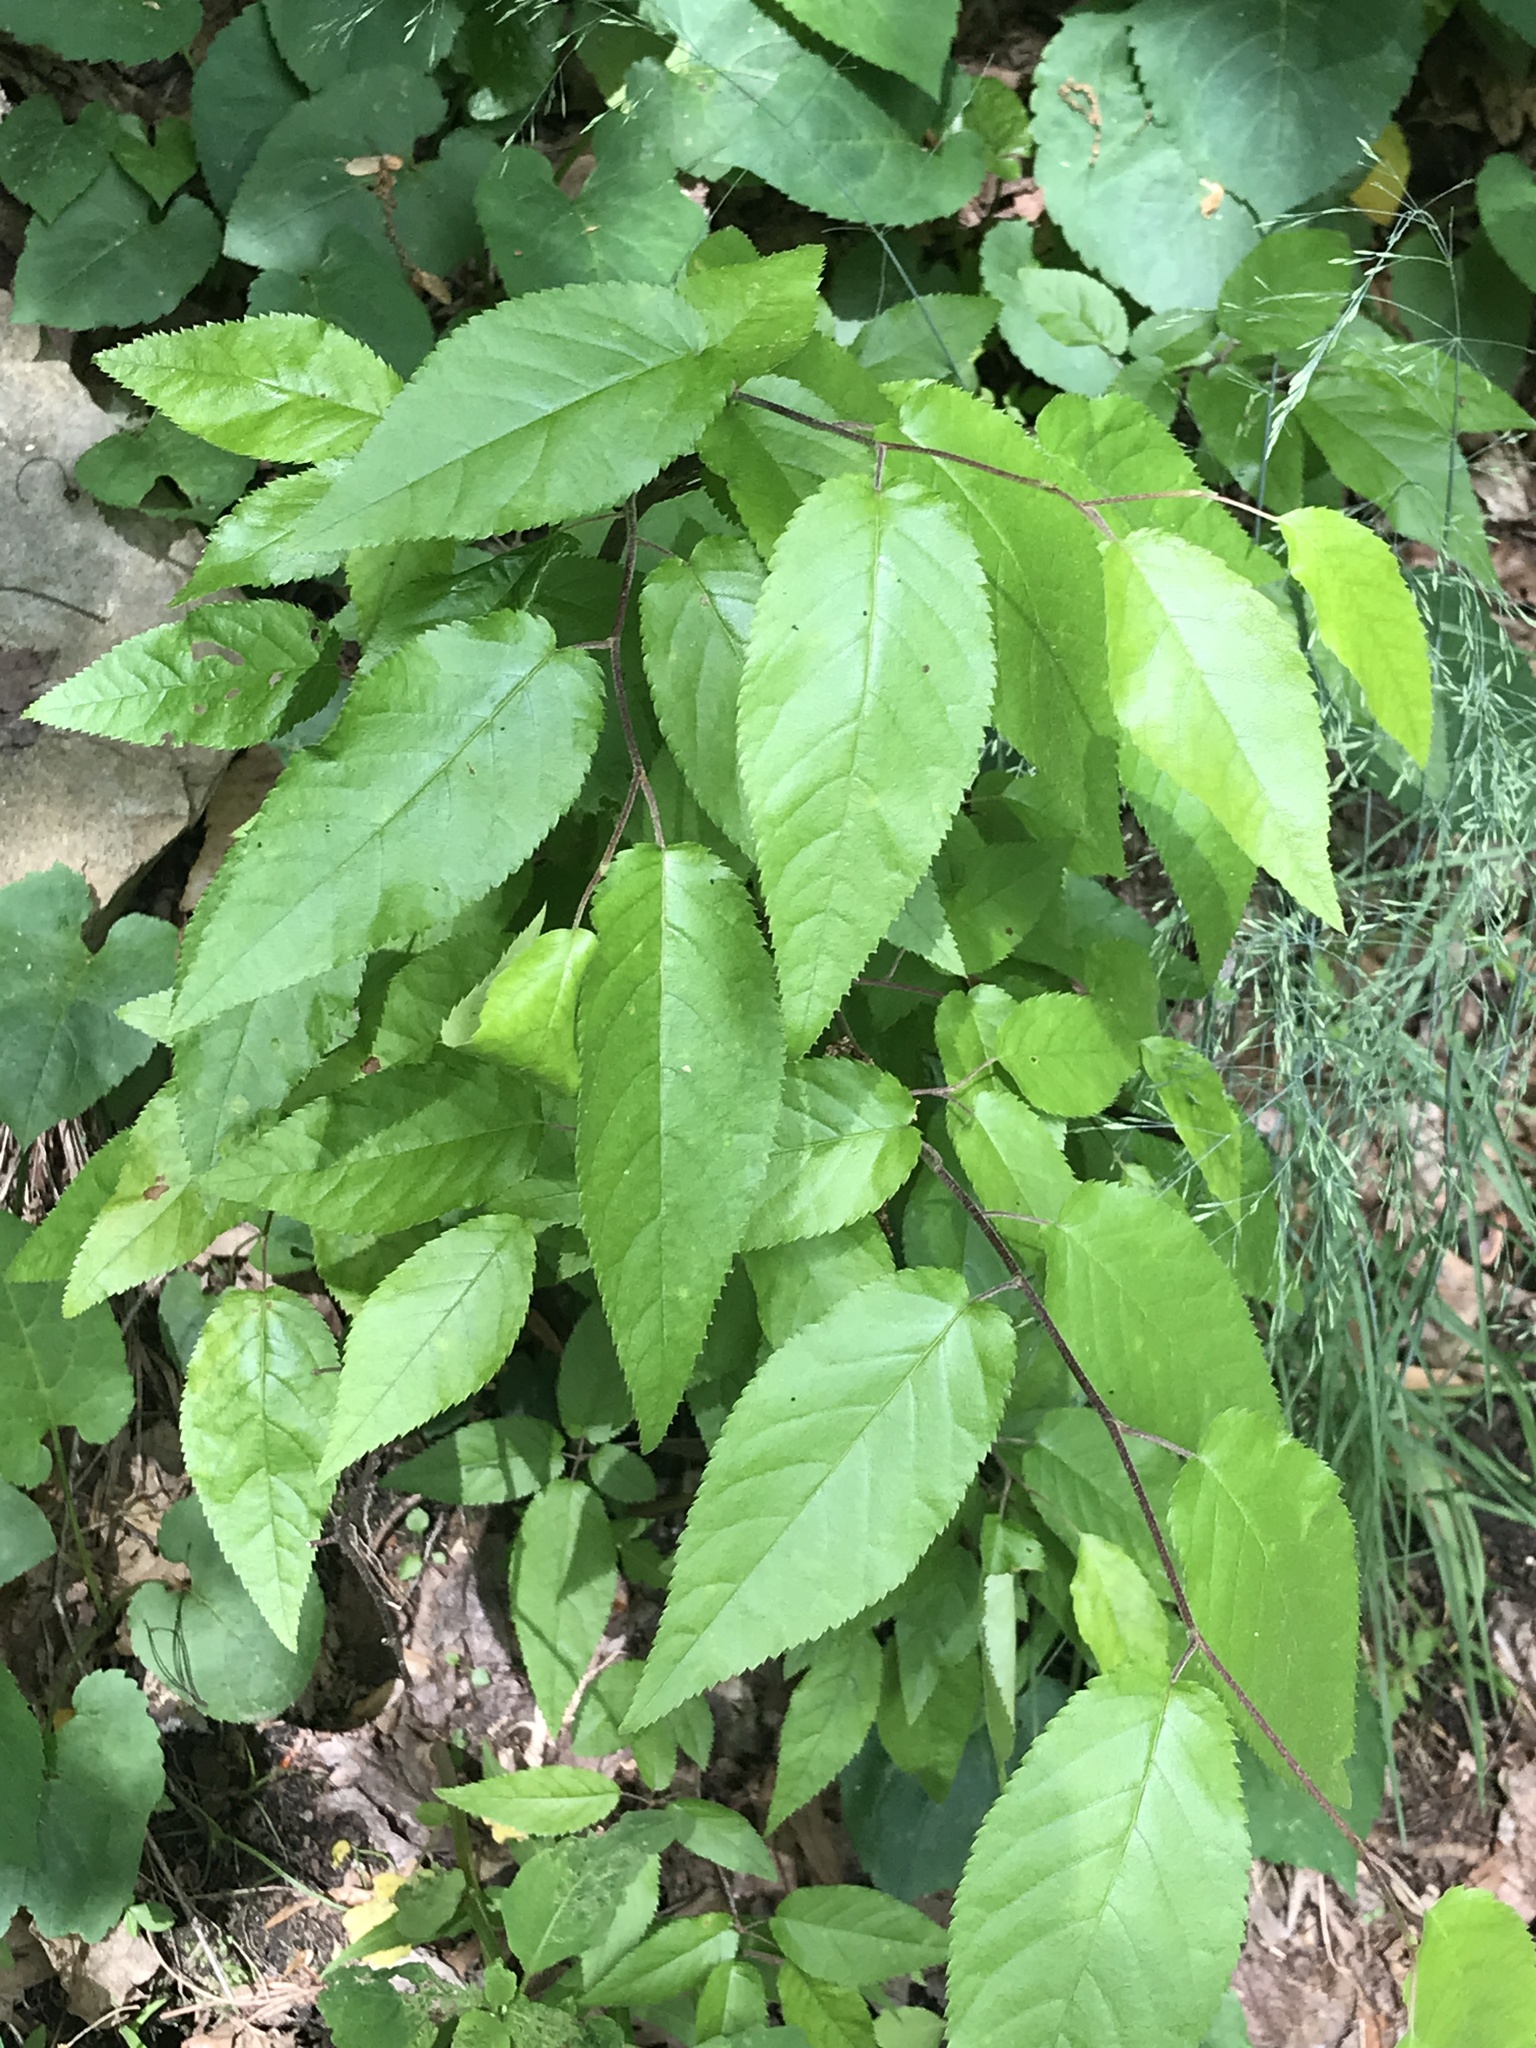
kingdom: Plantae
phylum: Tracheophyta
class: Magnoliopsida
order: Fagales
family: Betulaceae
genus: Betula
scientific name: Betula alleghaniensis
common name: Yellow birch
